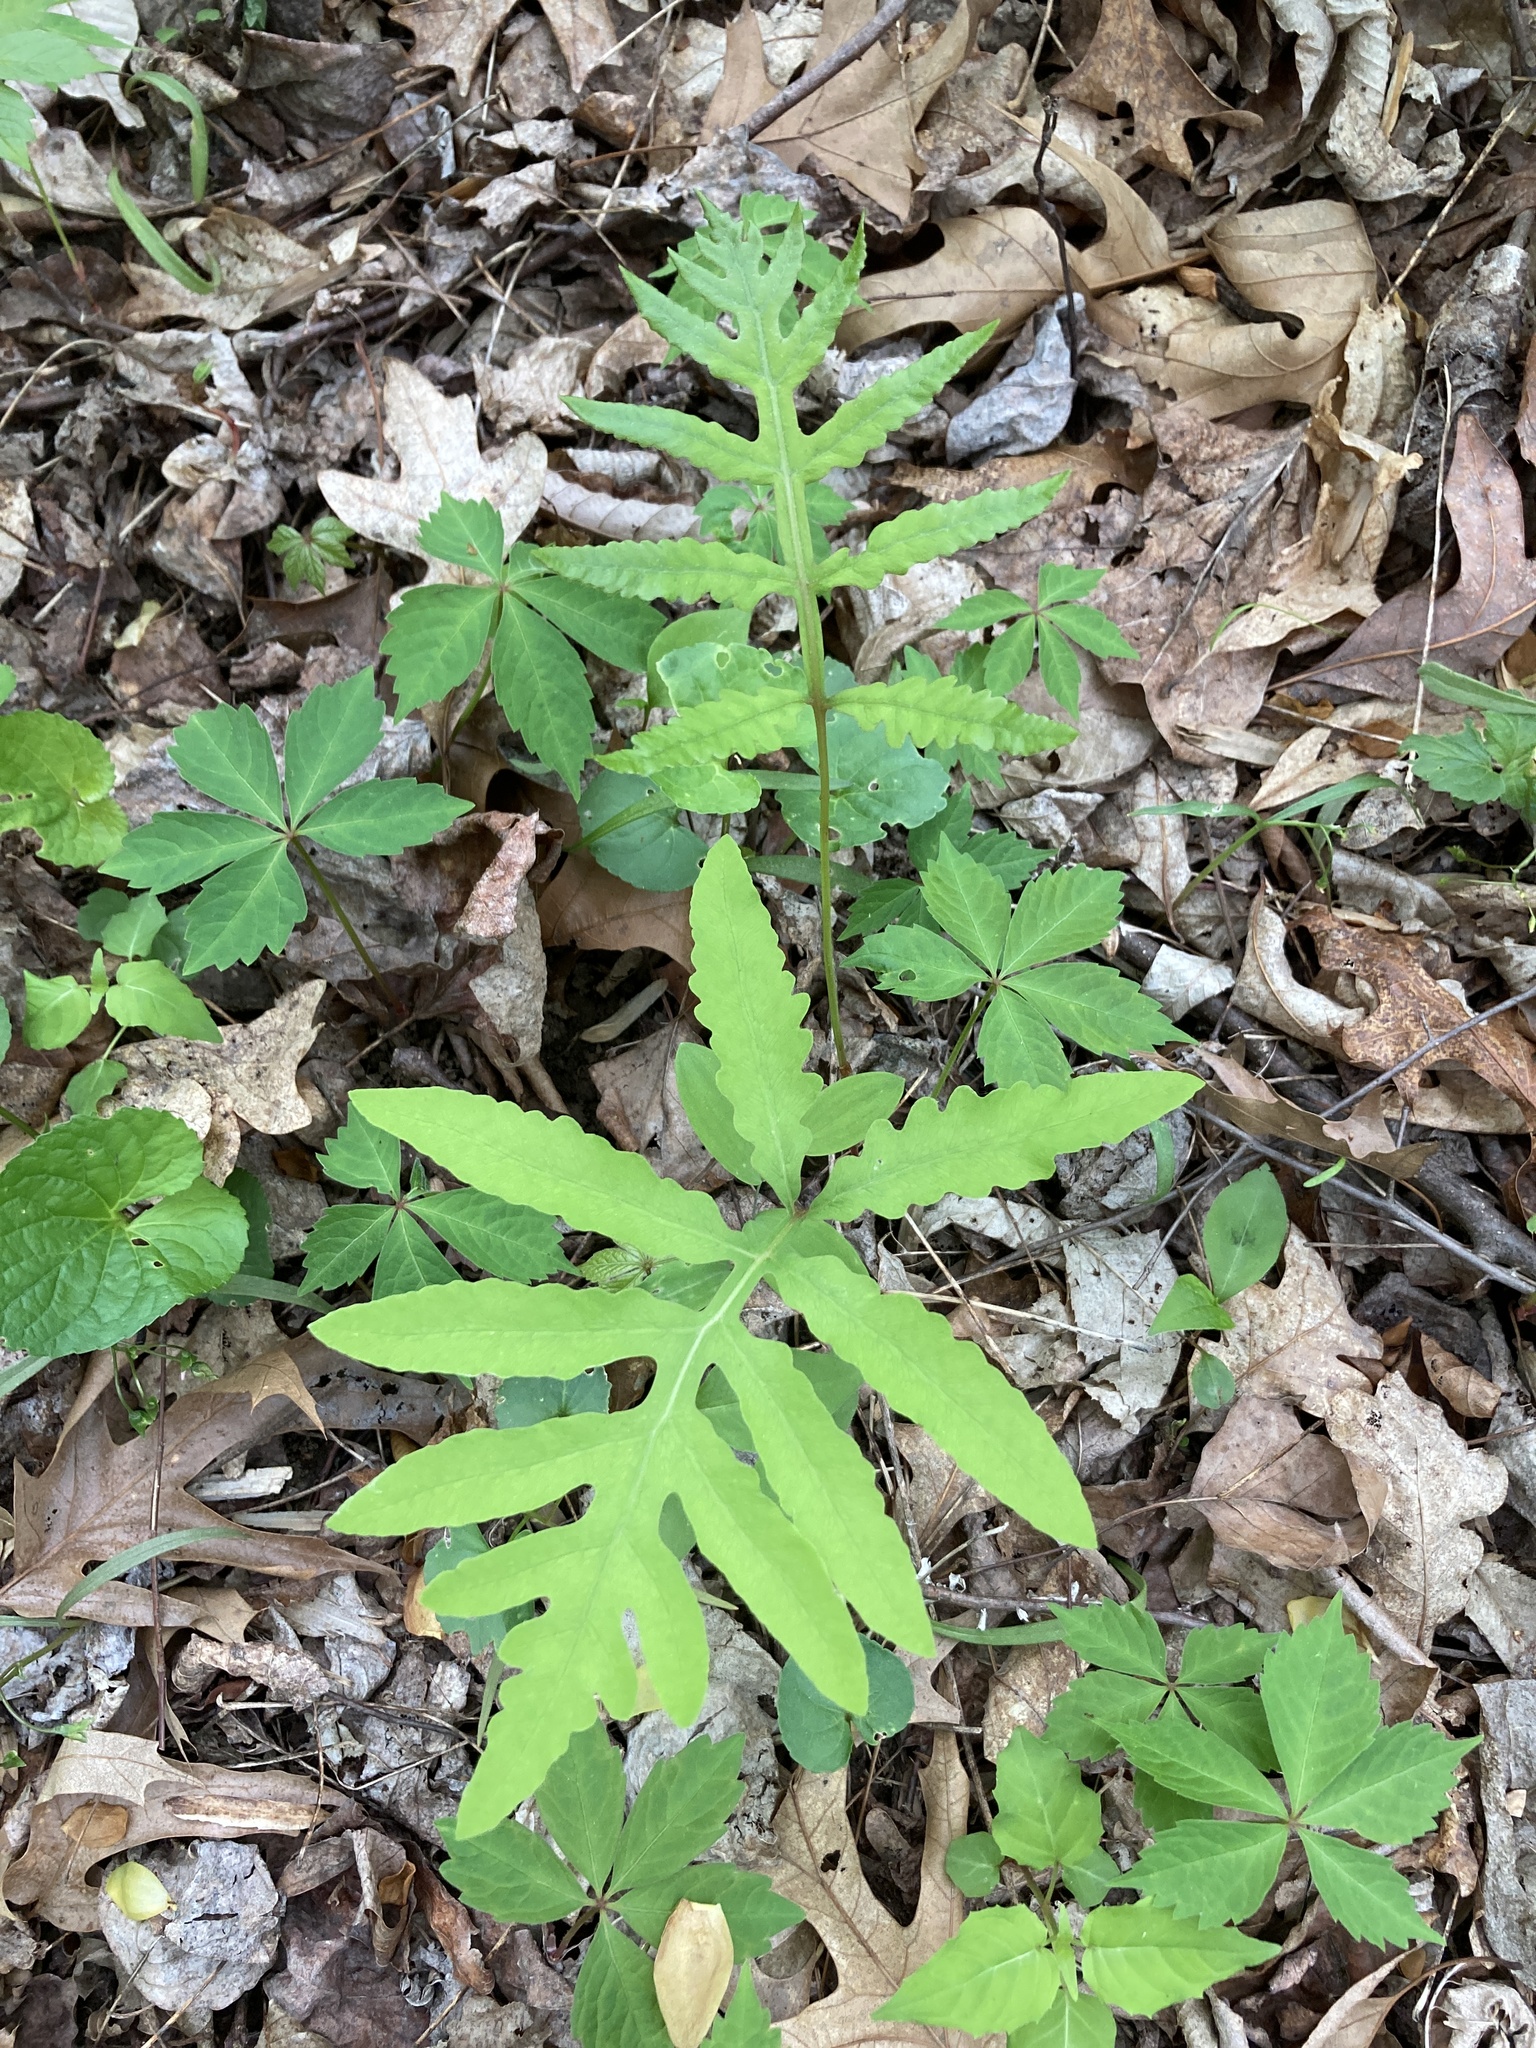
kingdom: Plantae
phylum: Tracheophyta
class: Polypodiopsida
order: Polypodiales
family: Onocleaceae
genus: Onoclea
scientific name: Onoclea sensibilis
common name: Sensitive fern
